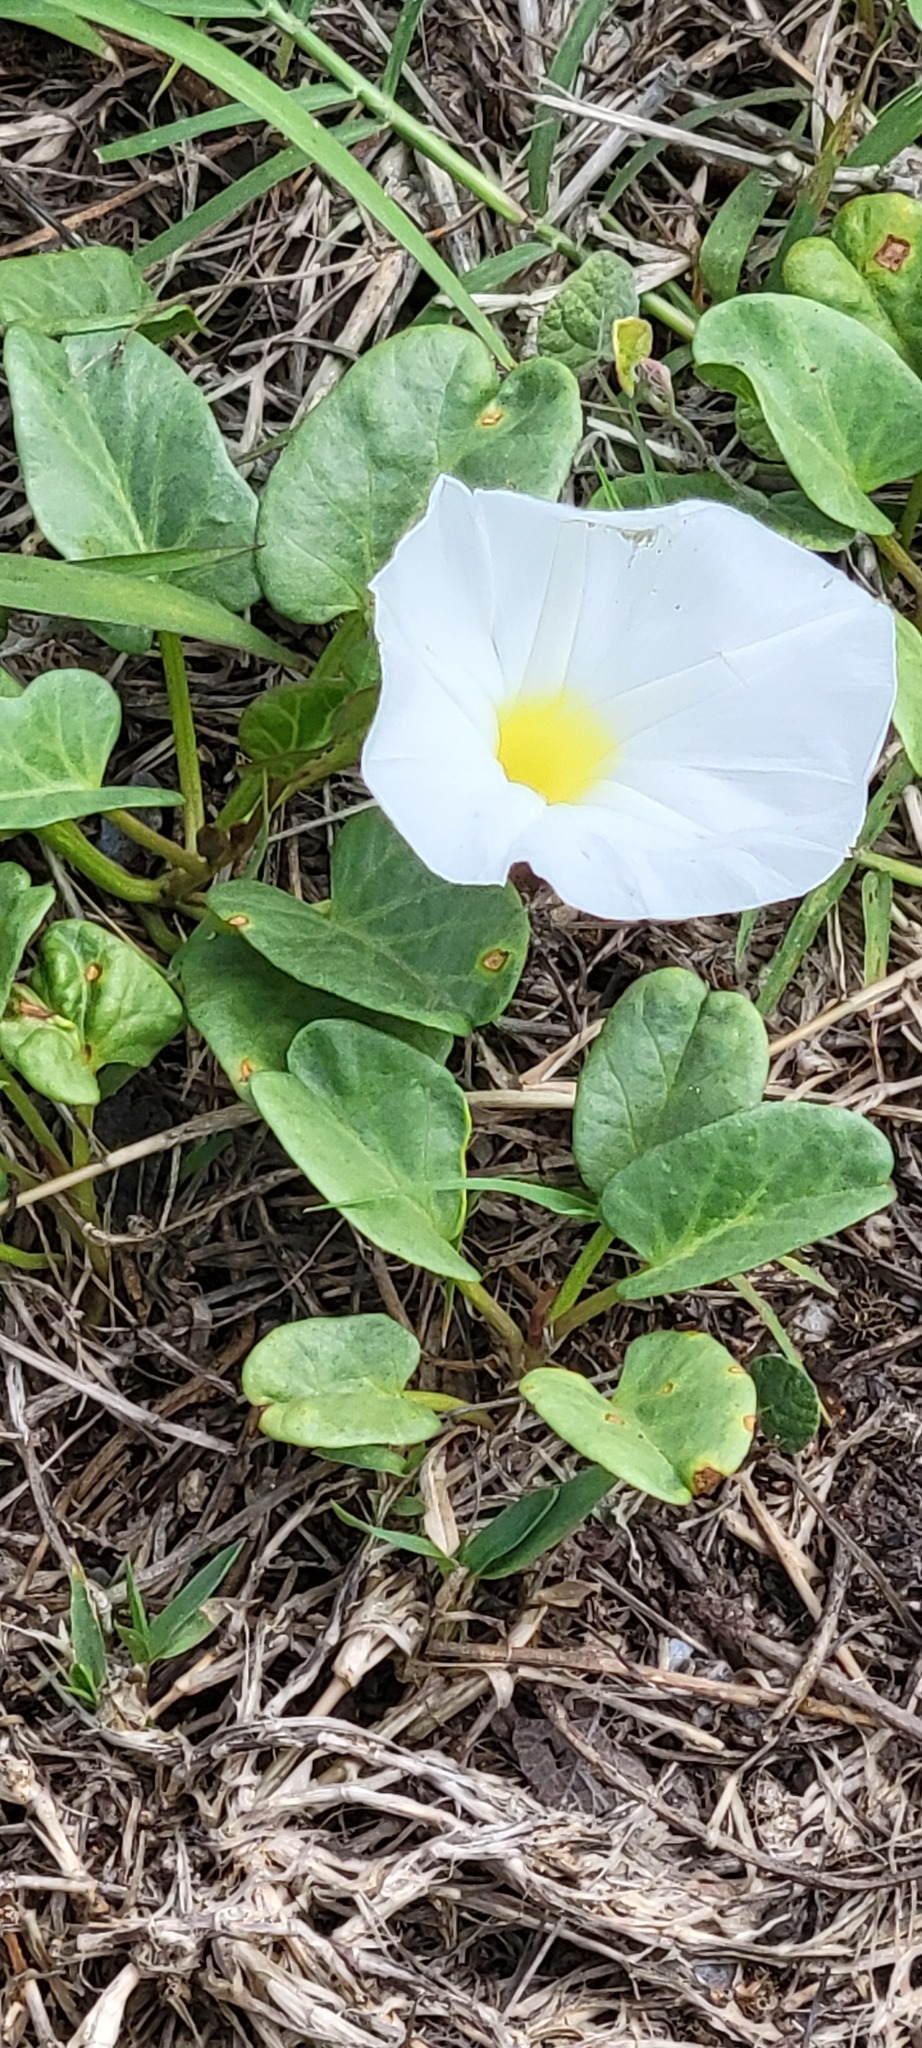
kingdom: Plantae
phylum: Tracheophyta
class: Magnoliopsida
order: Solanales
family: Convolvulaceae
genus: Ipomoea
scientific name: Ipomoea imperati
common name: Fiddle-leaf morning-glory
